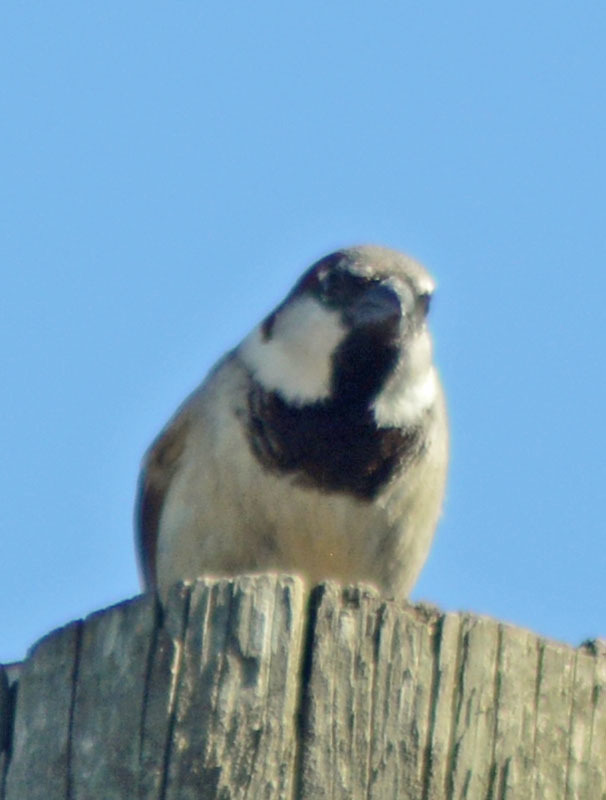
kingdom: Animalia
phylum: Chordata
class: Aves
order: Passeriformes
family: Passeridae
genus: Passer
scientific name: Passer domesticus
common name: House sparrow
